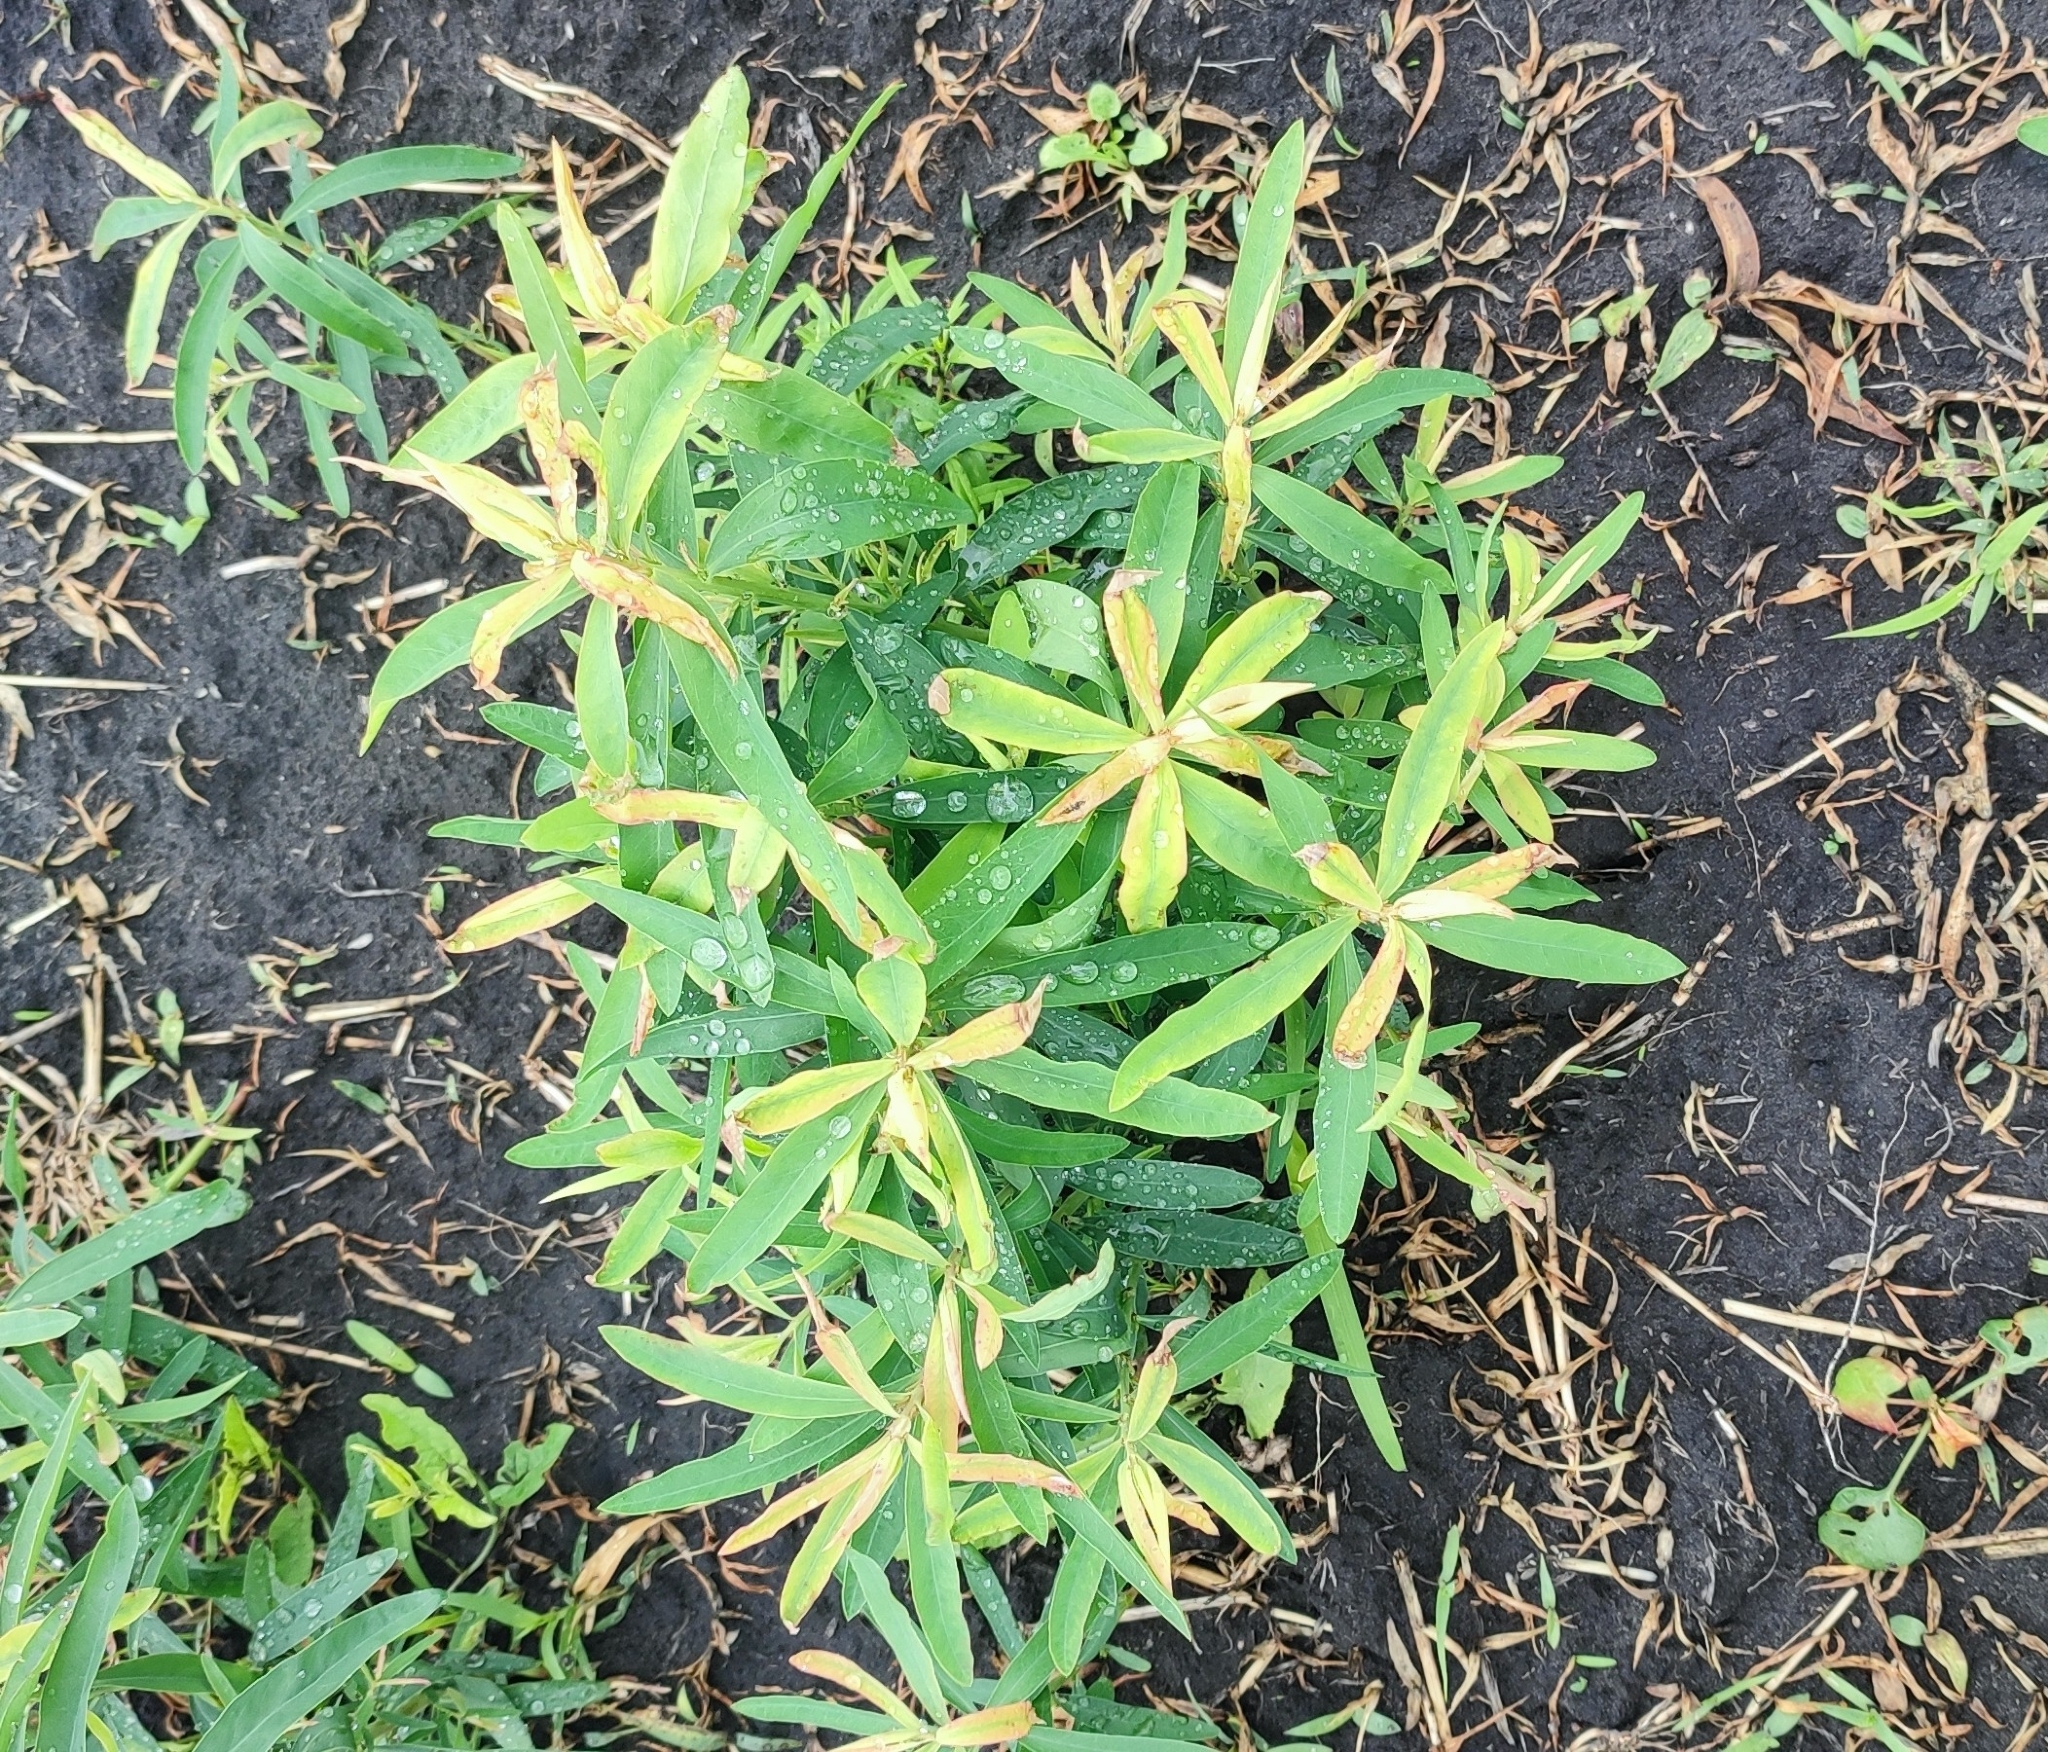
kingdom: Plantae
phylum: Tracheophyta
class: Magnoliopsida
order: Malpighiales
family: Euphorbiaceae
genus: Euphorbia
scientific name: Euphorbia virgata
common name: Leafy spurge
